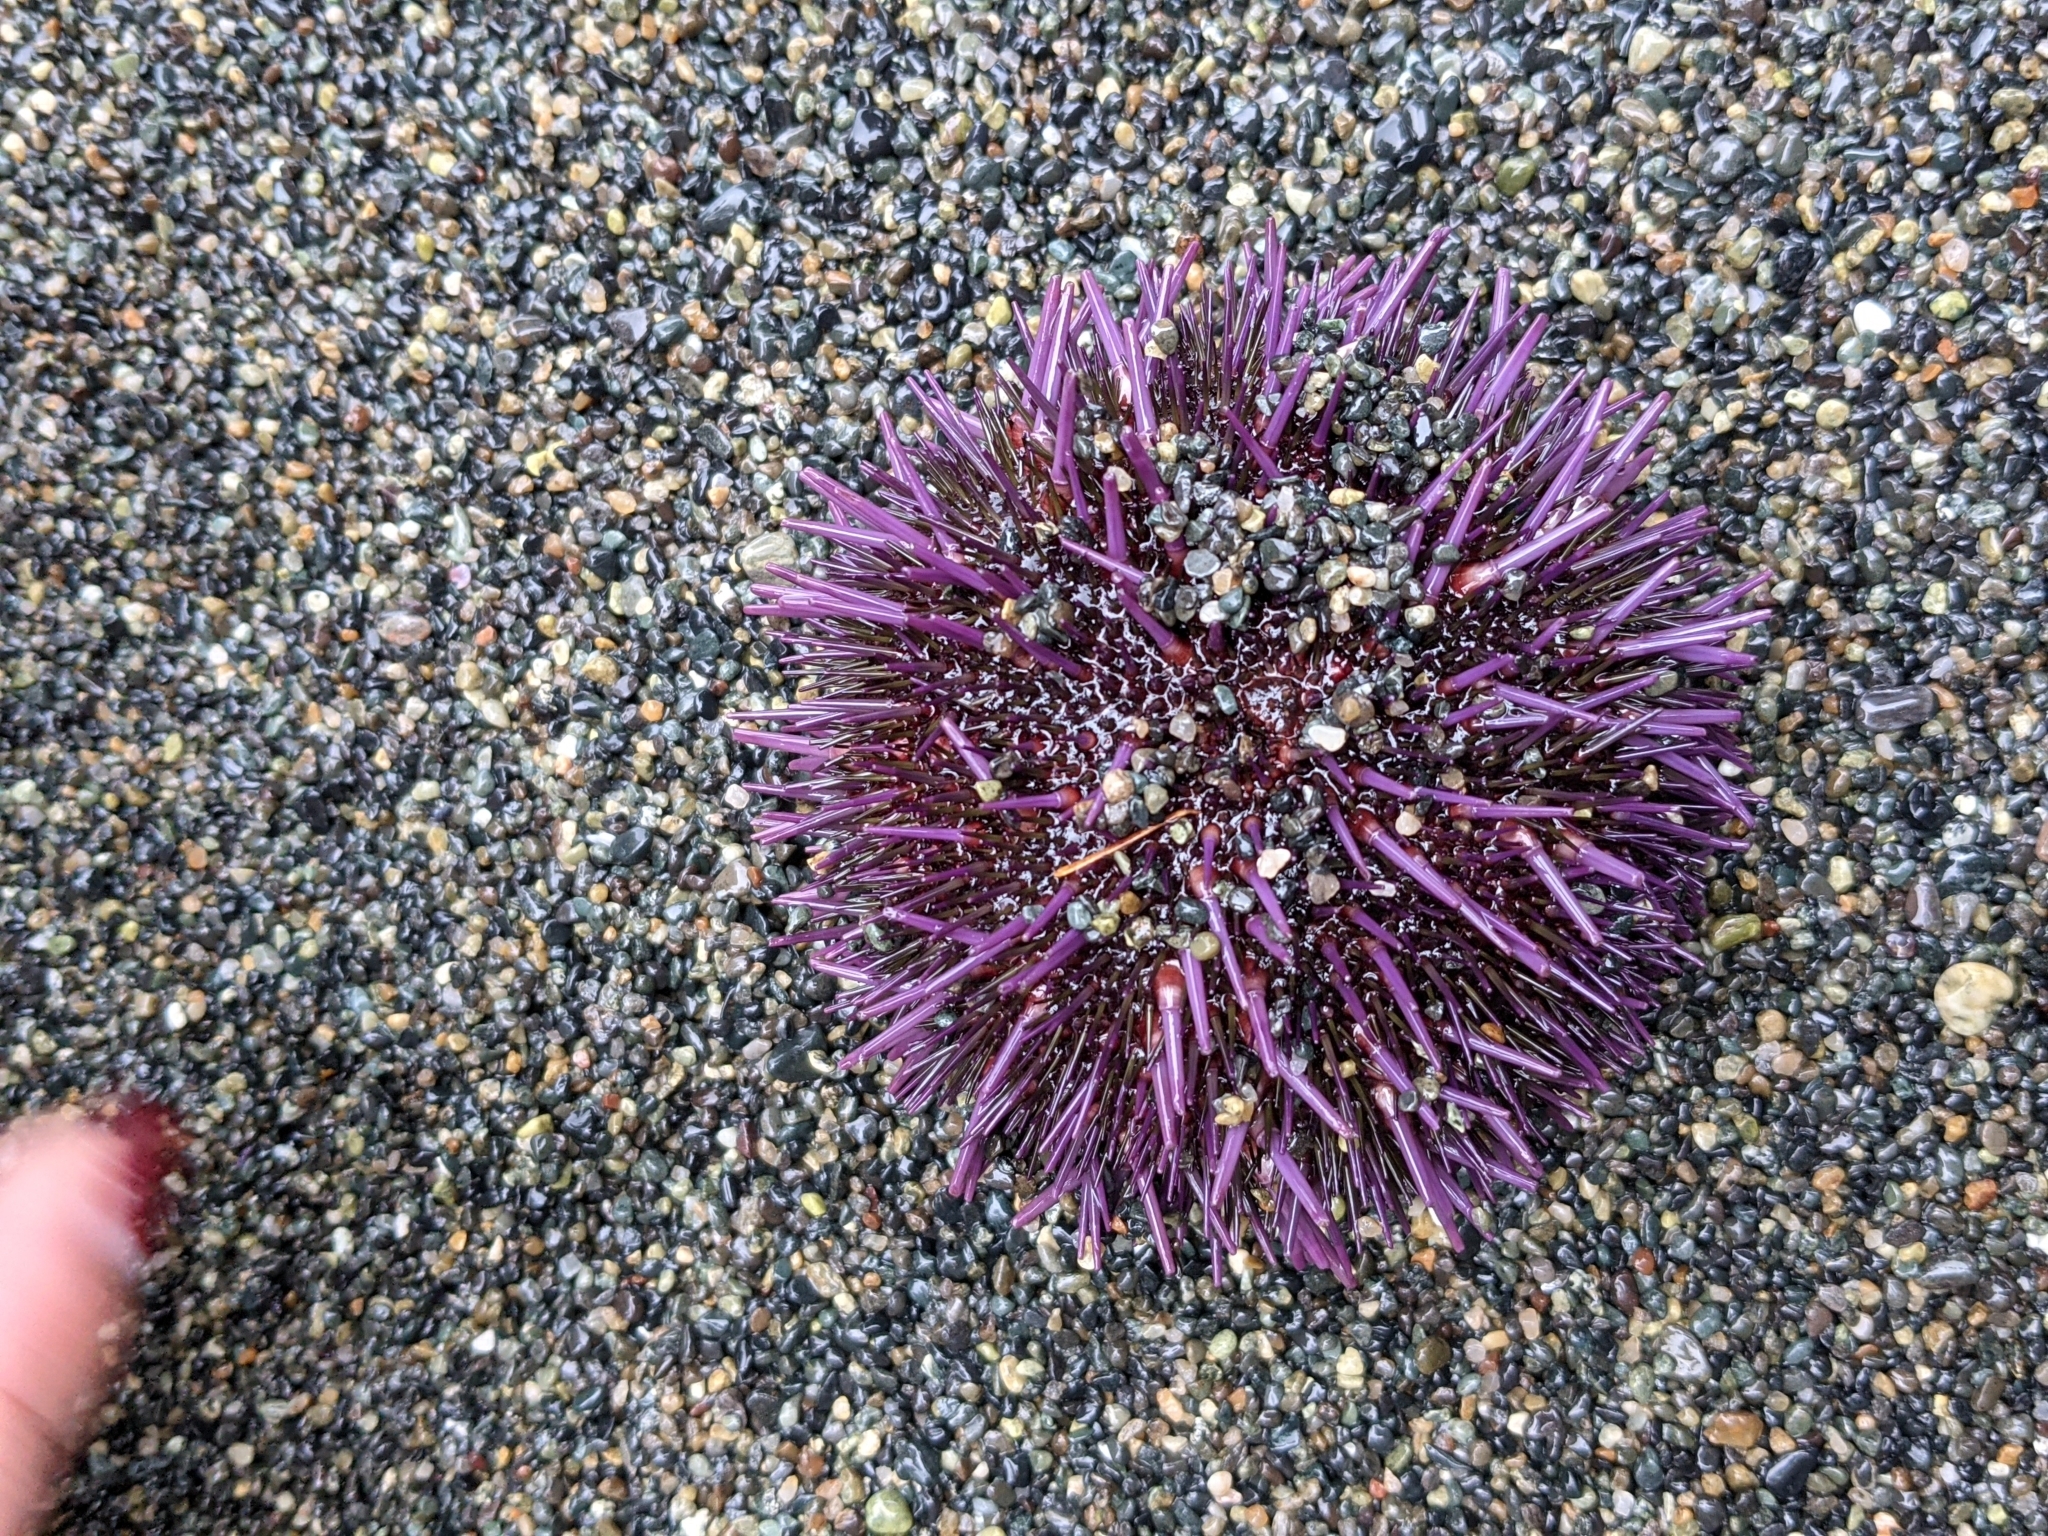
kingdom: Animalia
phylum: Echinodermata
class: Echinoidea
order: Camarodonta
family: Strongylocentrotidae
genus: Strongylocentrotus
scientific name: Strongylocentrotus purpuratus
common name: Purple sea urchin
